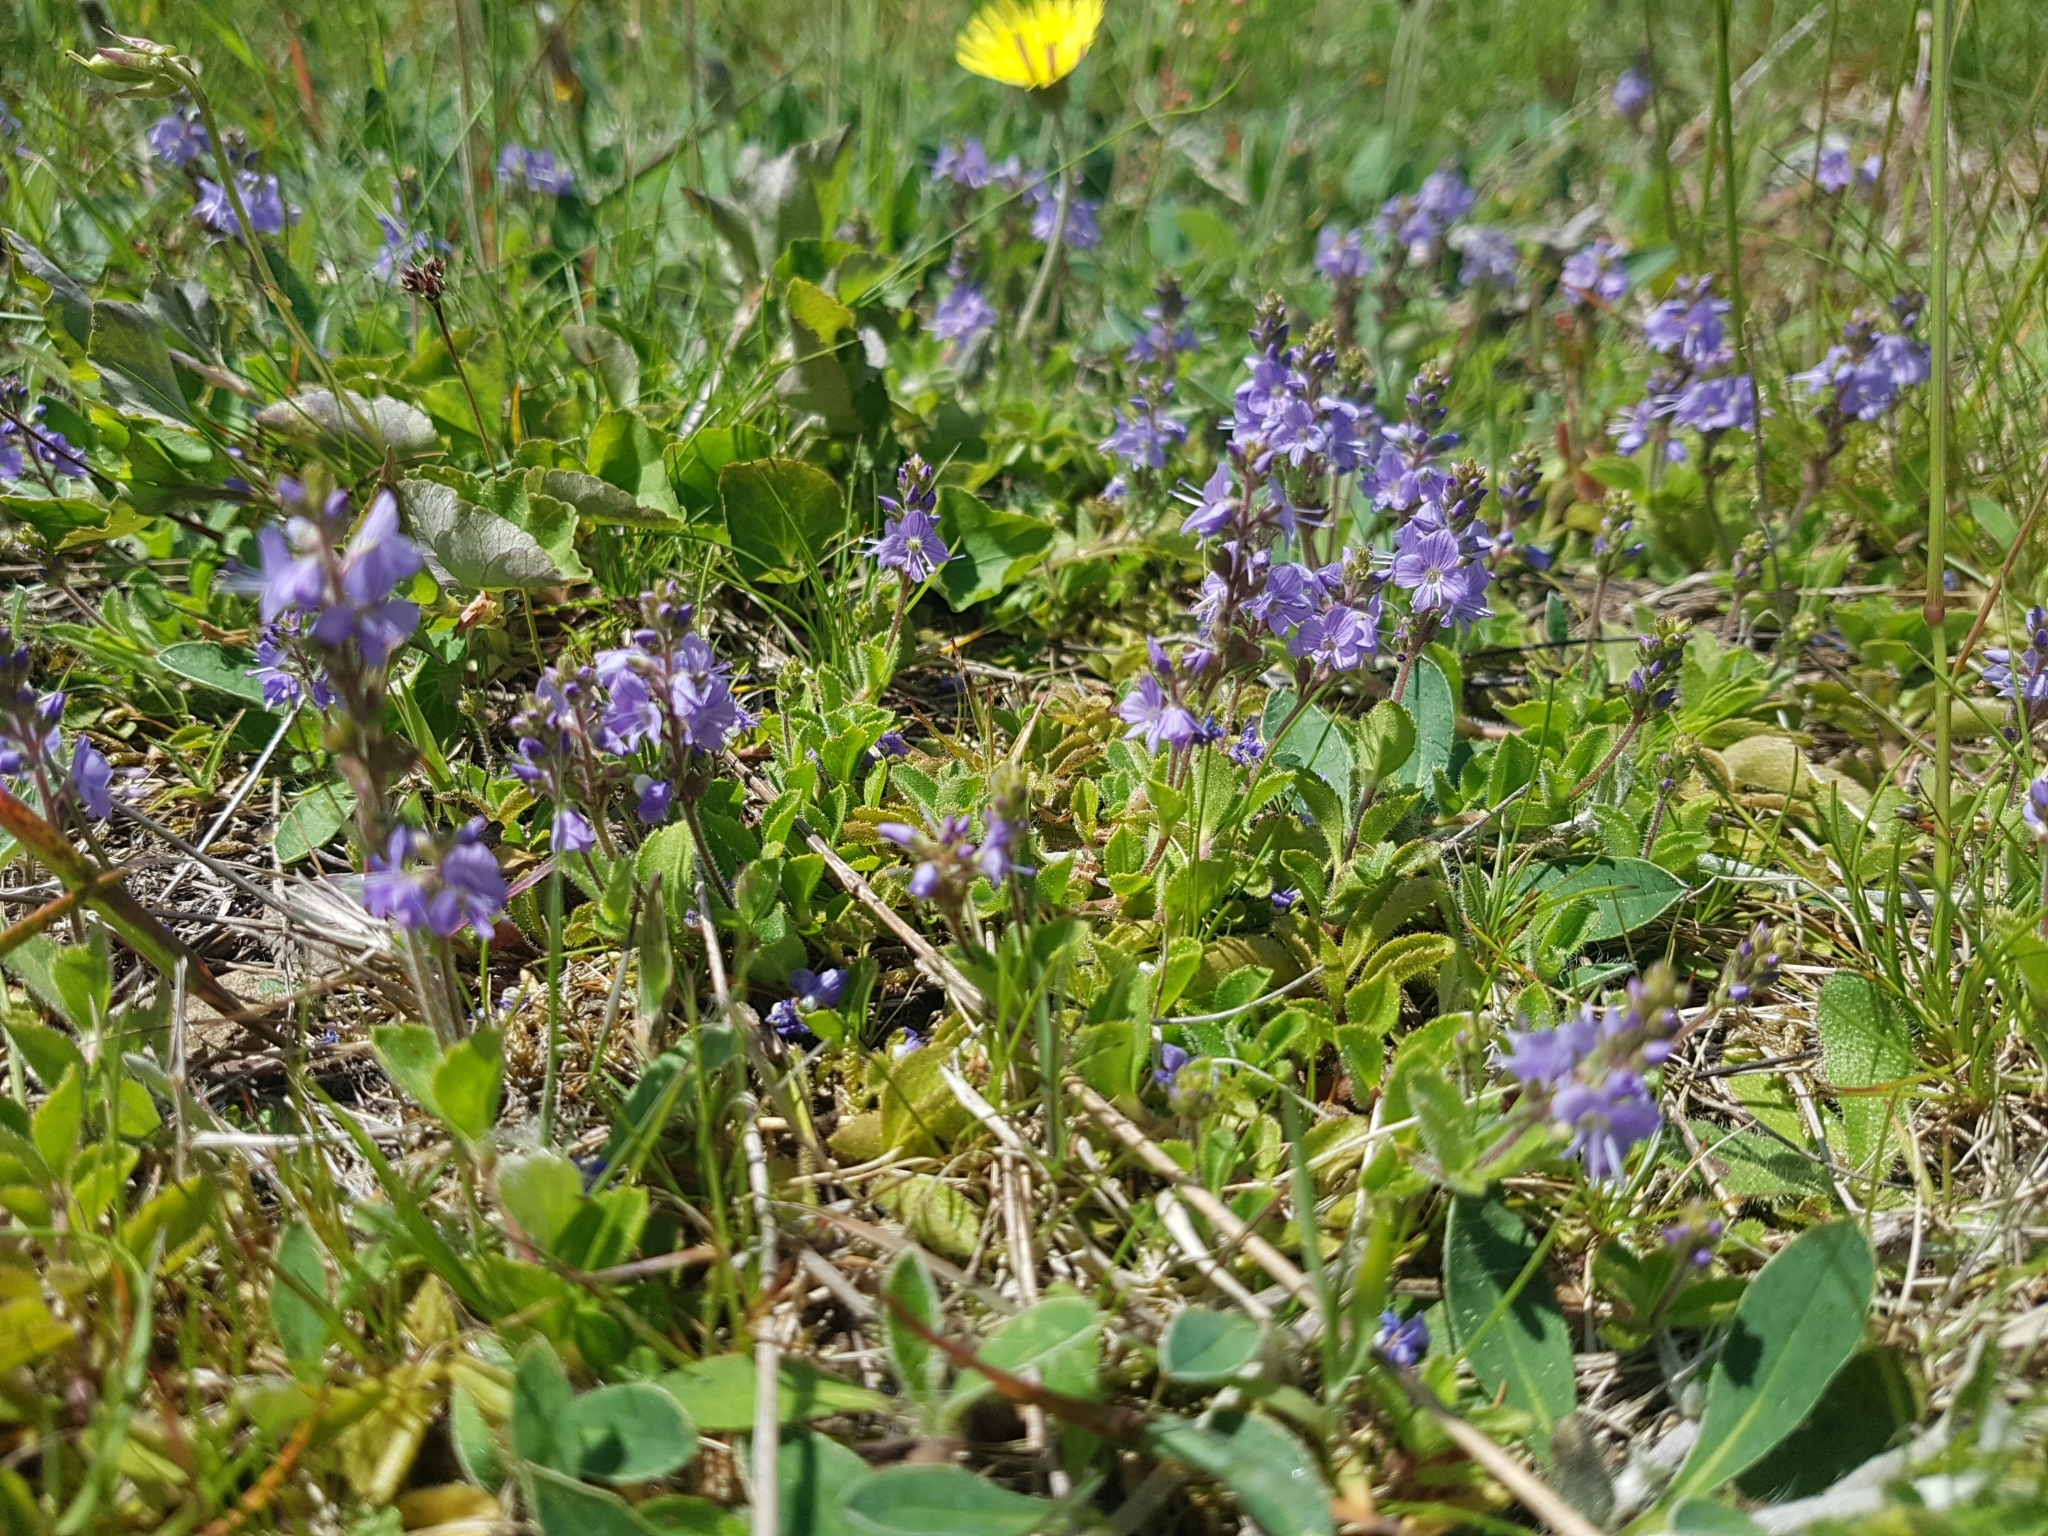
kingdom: Plantae
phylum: Tracheophyta
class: Magnoliopsida
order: Lamiales
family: Plantaginaceae
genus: Veronica
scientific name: Veronica officinalis
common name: Common speedwell
